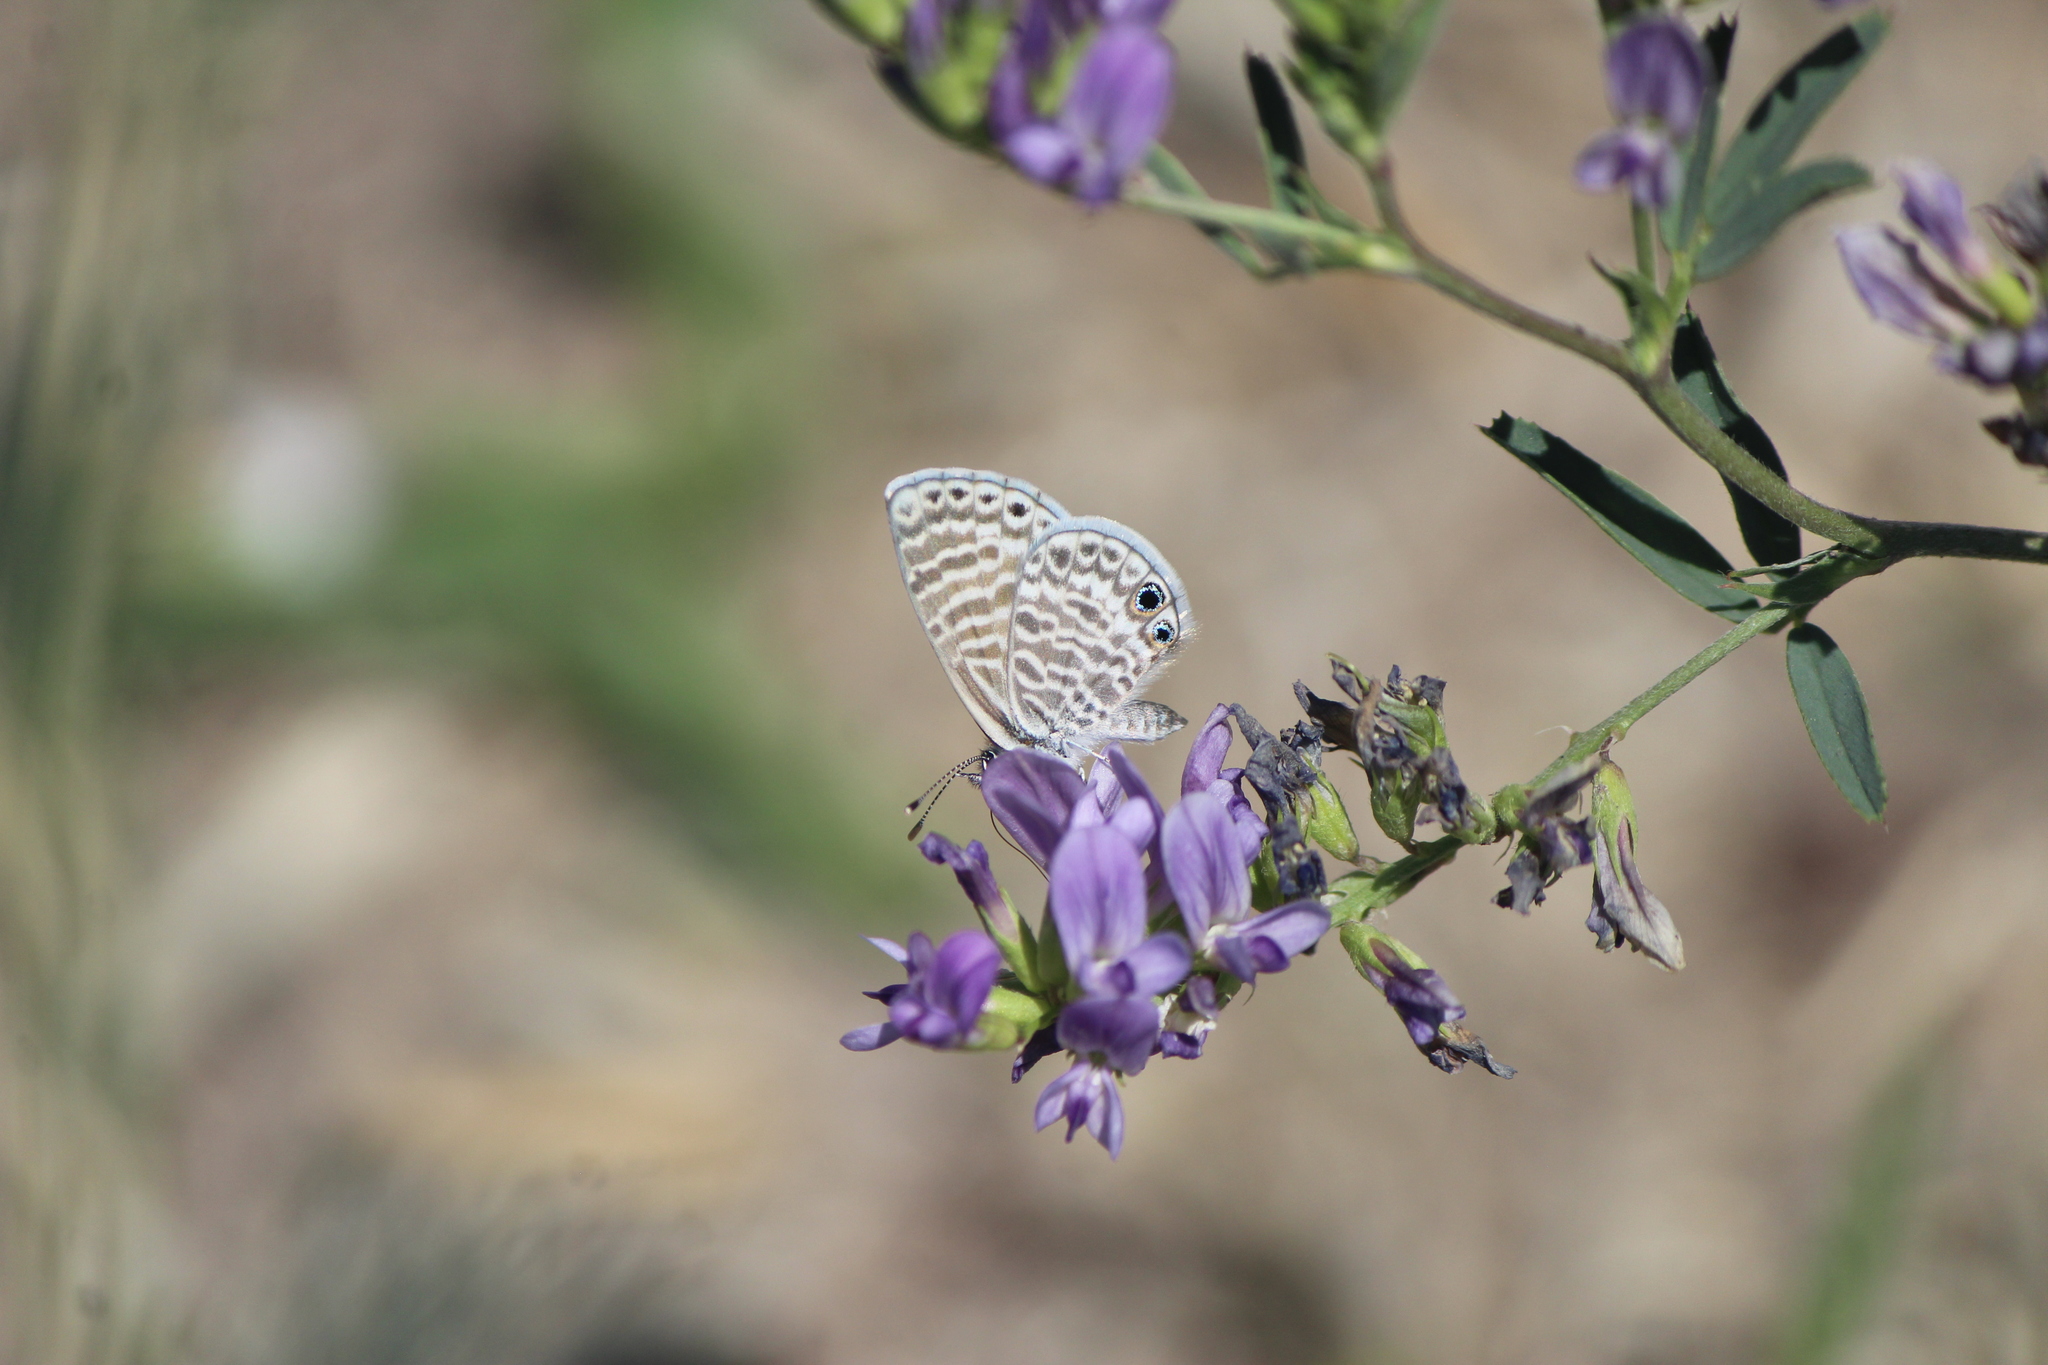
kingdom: Animalia
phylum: Arthropoda
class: Insecta
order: Lepidoptera
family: Lycaenidae
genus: Leptotes
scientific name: Leptotes marina
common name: Marine blue
